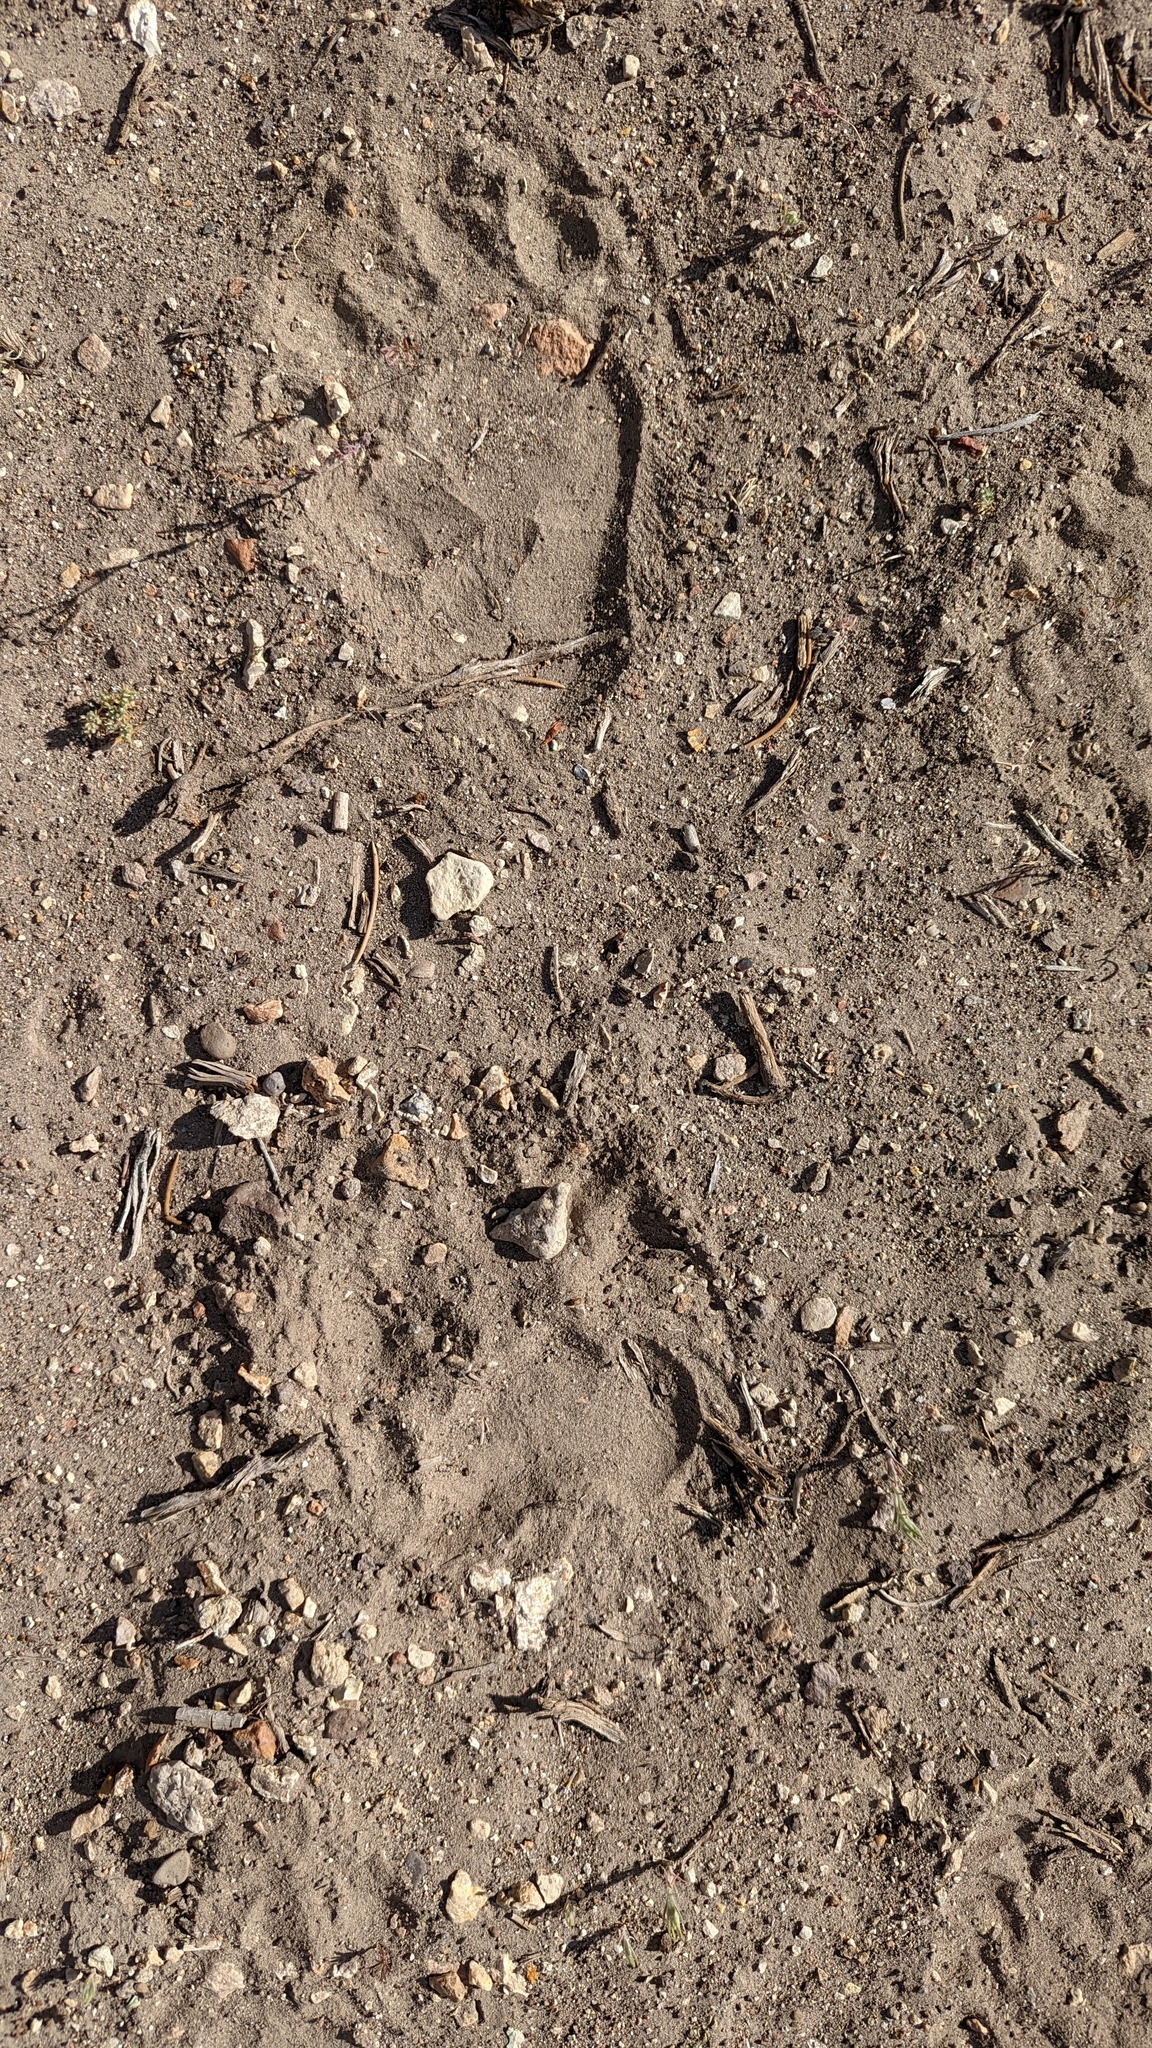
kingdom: Animalia
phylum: Chordata
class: Mammalia
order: Carnivora
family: Ursidae
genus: Ursus
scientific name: Ursus americanus
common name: American black bear
